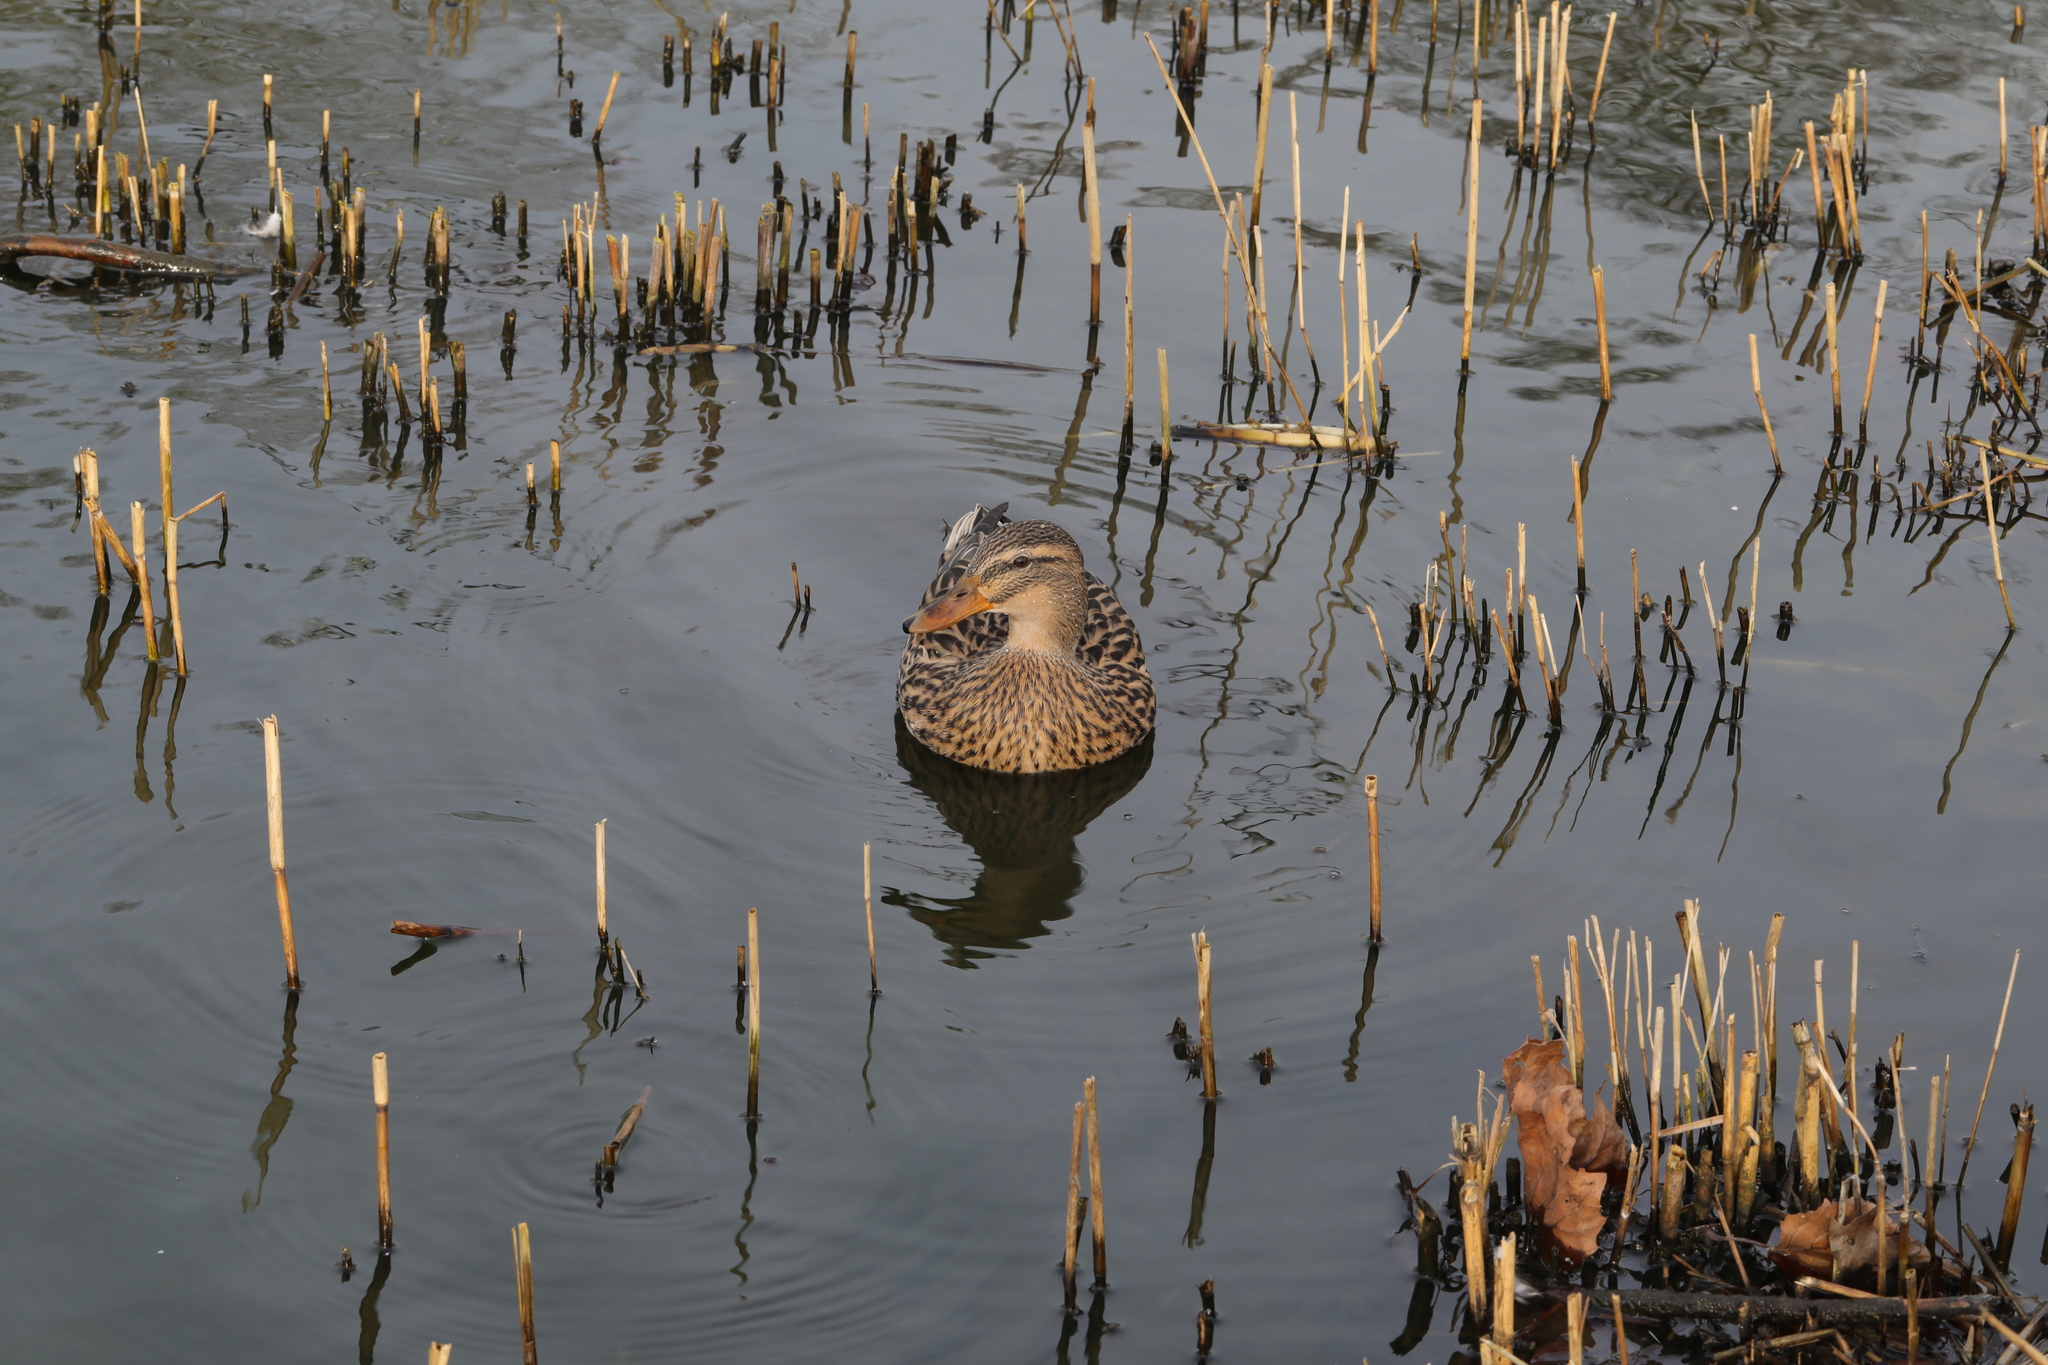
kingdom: Animalia
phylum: Chordata
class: Aves
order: Anseriformes
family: Anatidae
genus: Anas
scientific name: Anas platyrhynchos
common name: Mallard
